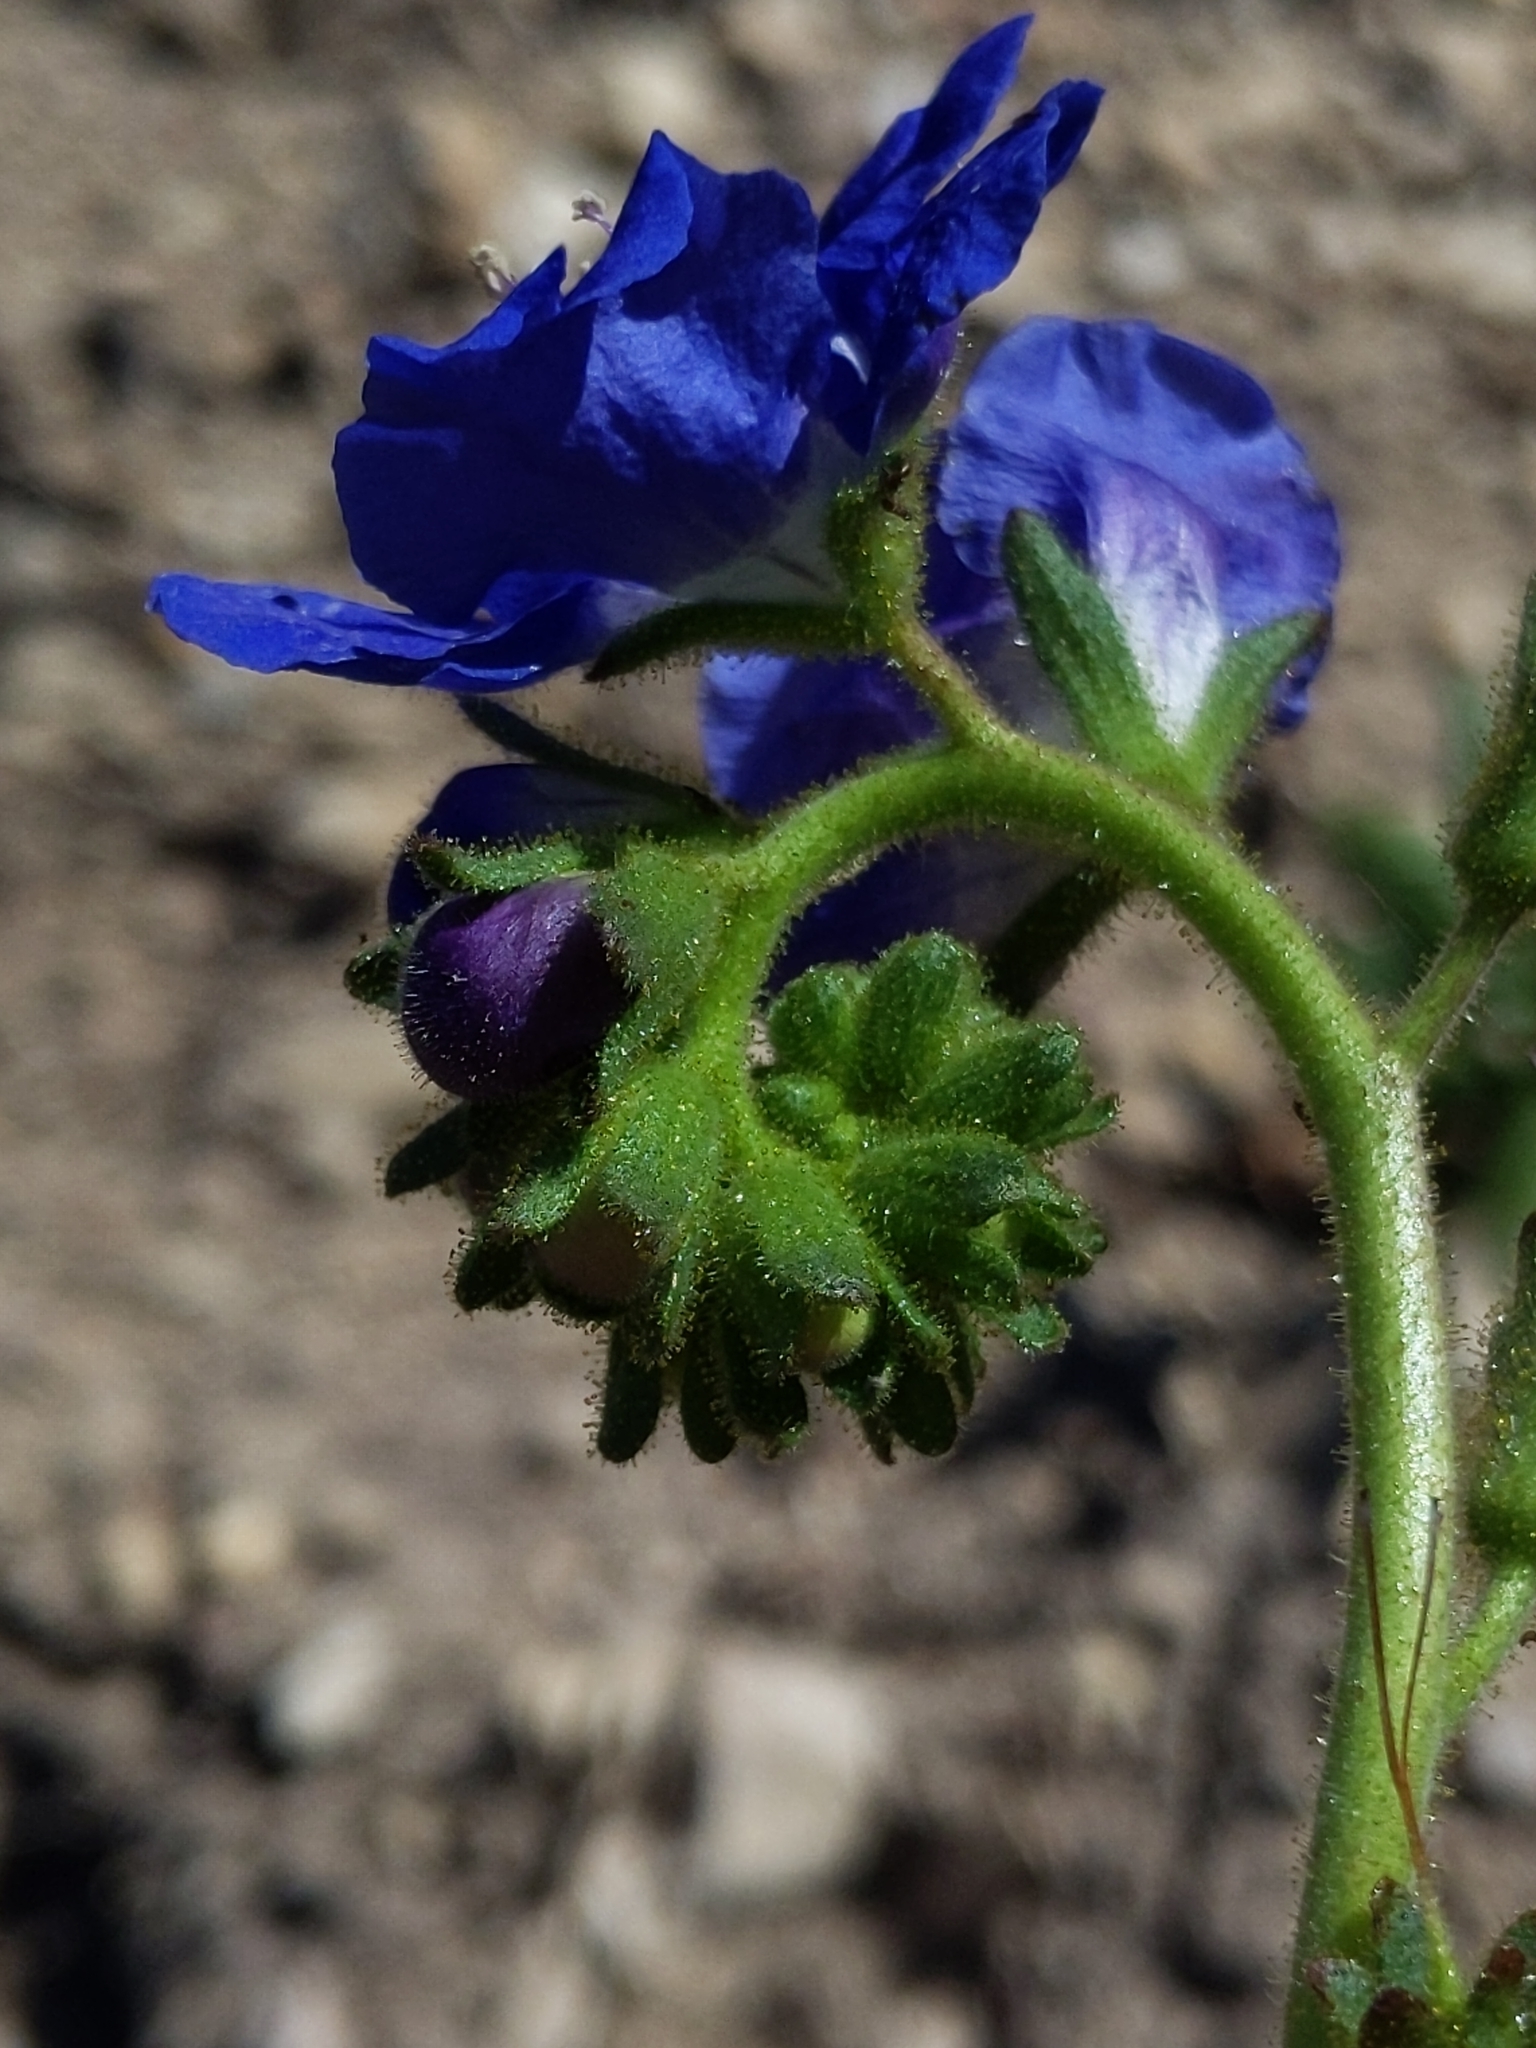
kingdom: Plantae
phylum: Tracheophyta
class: Magnoliopsida
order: Boraginales
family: Hydrophyllaceae
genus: Phacelia
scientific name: Phacelia viscida
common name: Sticky phacelia
